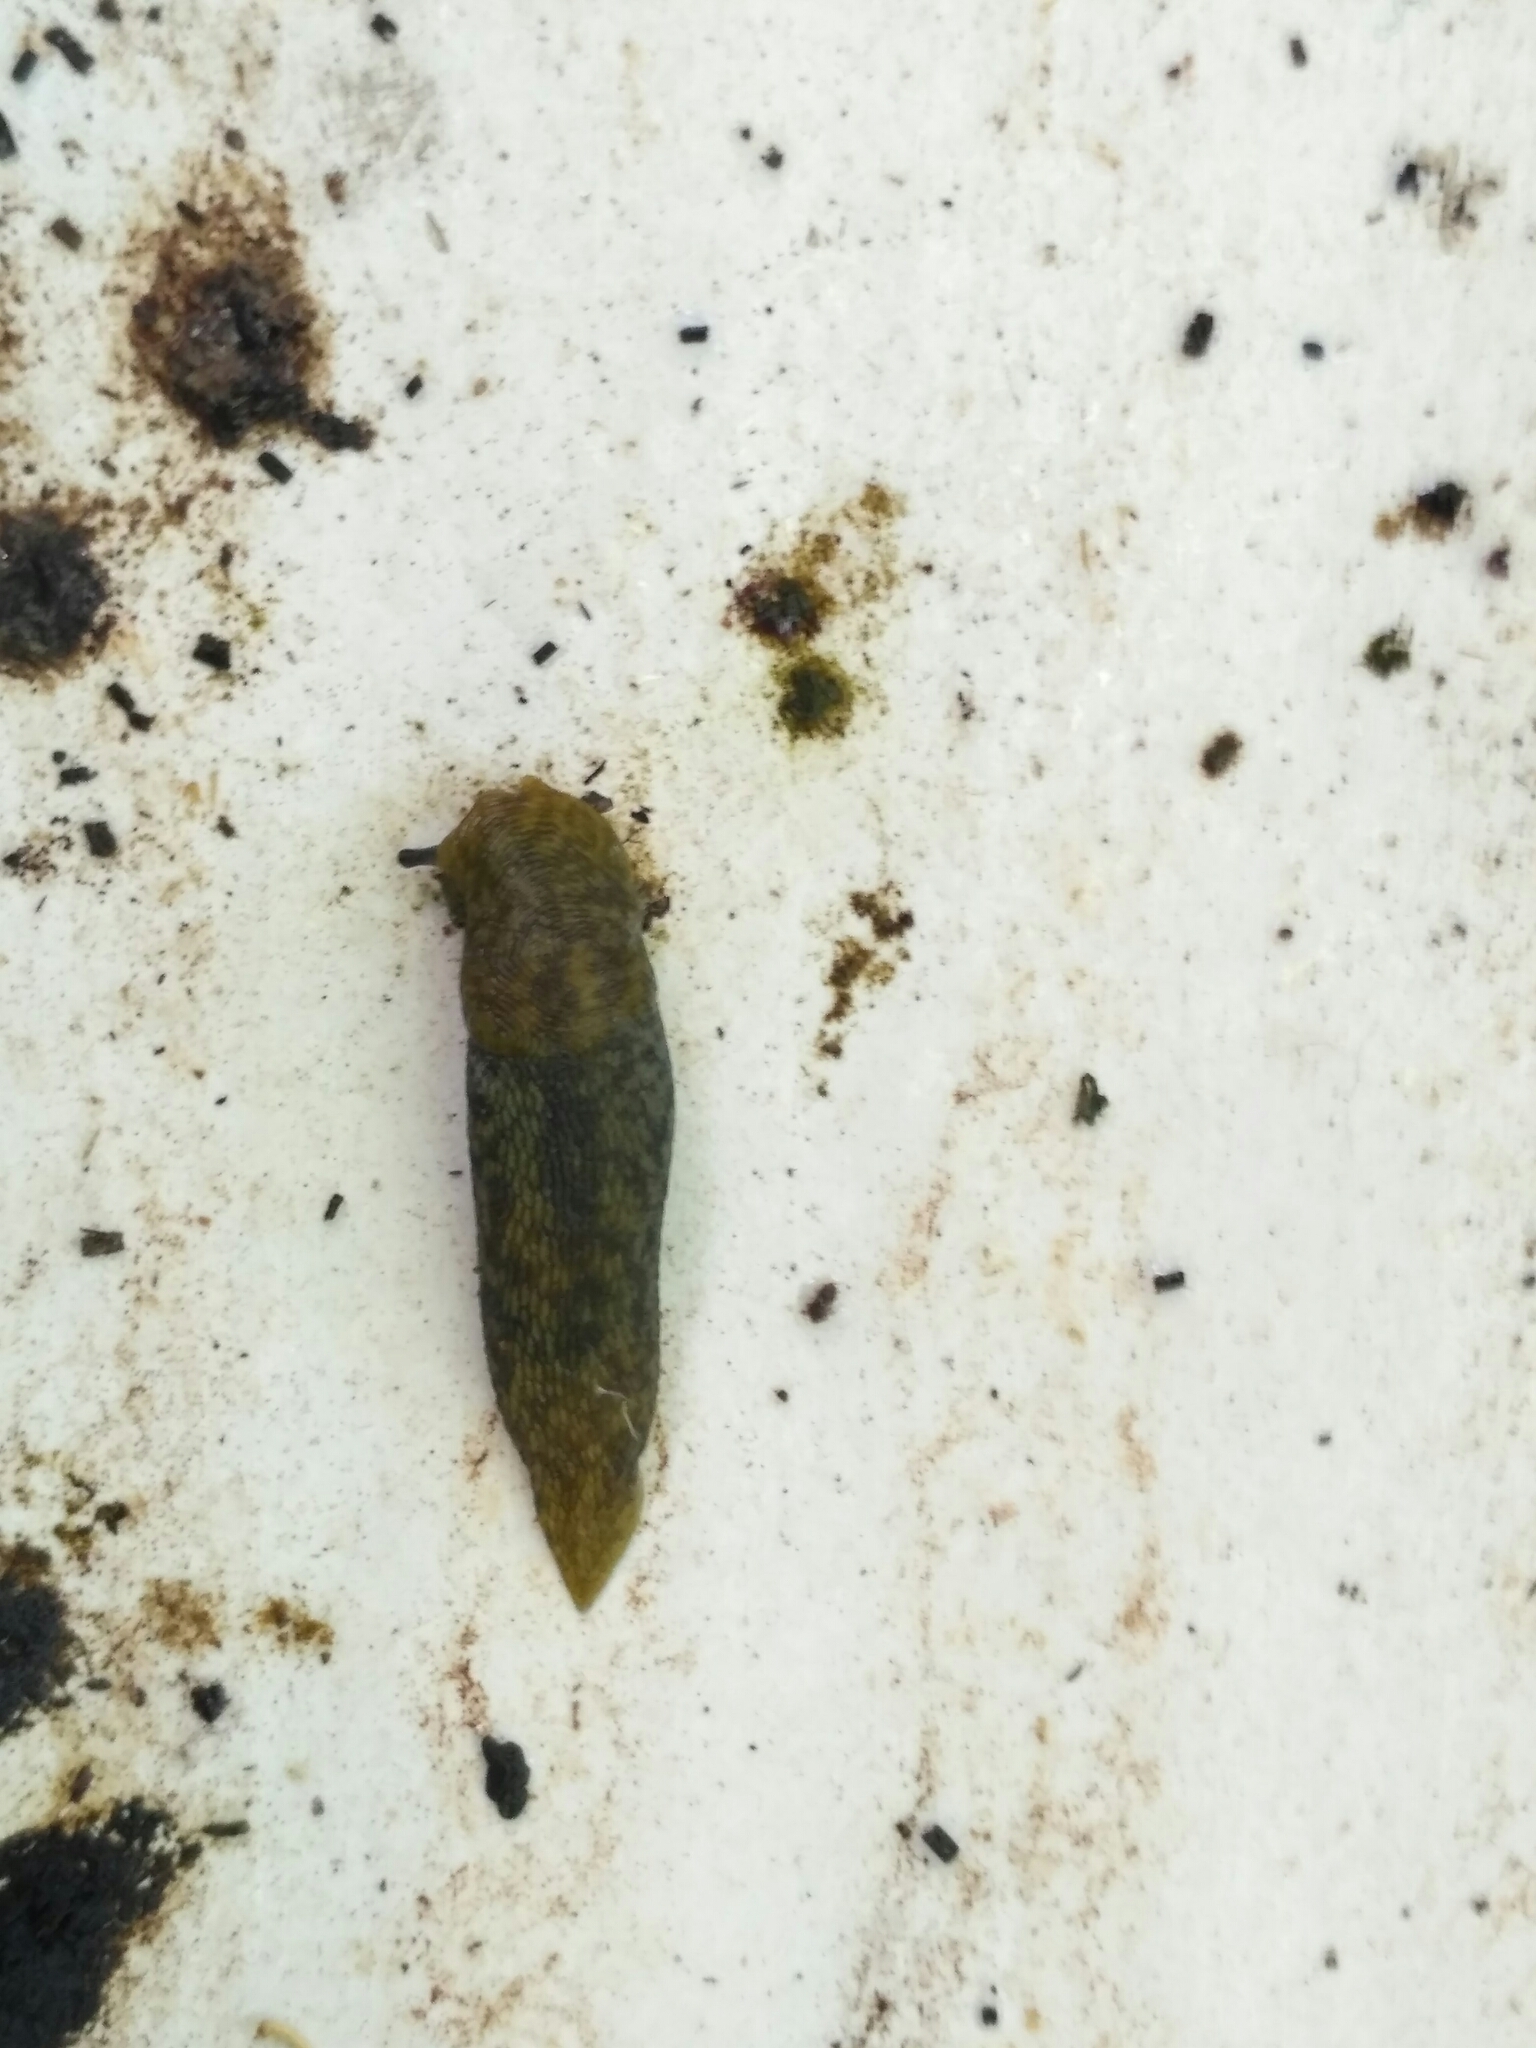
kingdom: Animalia
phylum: Mollusca
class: Gastropoda
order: Stylommatophora
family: Limacidae
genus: Limacus
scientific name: Limacus
